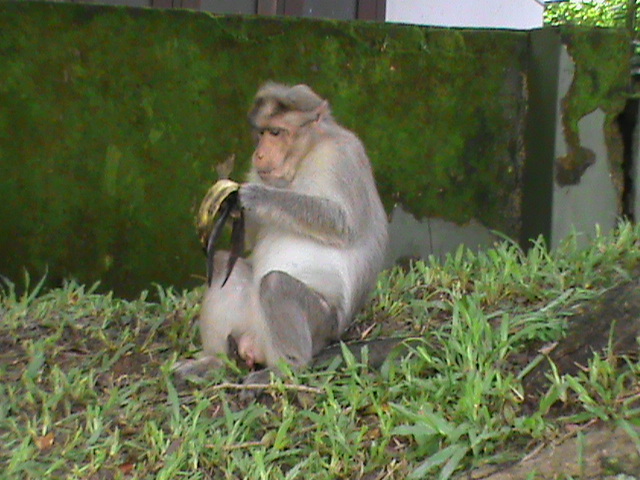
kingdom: Animalia
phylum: Chordata
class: Mammalia
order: Primates
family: Cercopithecidae
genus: Macaca
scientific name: Macaca radiata
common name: Bonnet macaque
